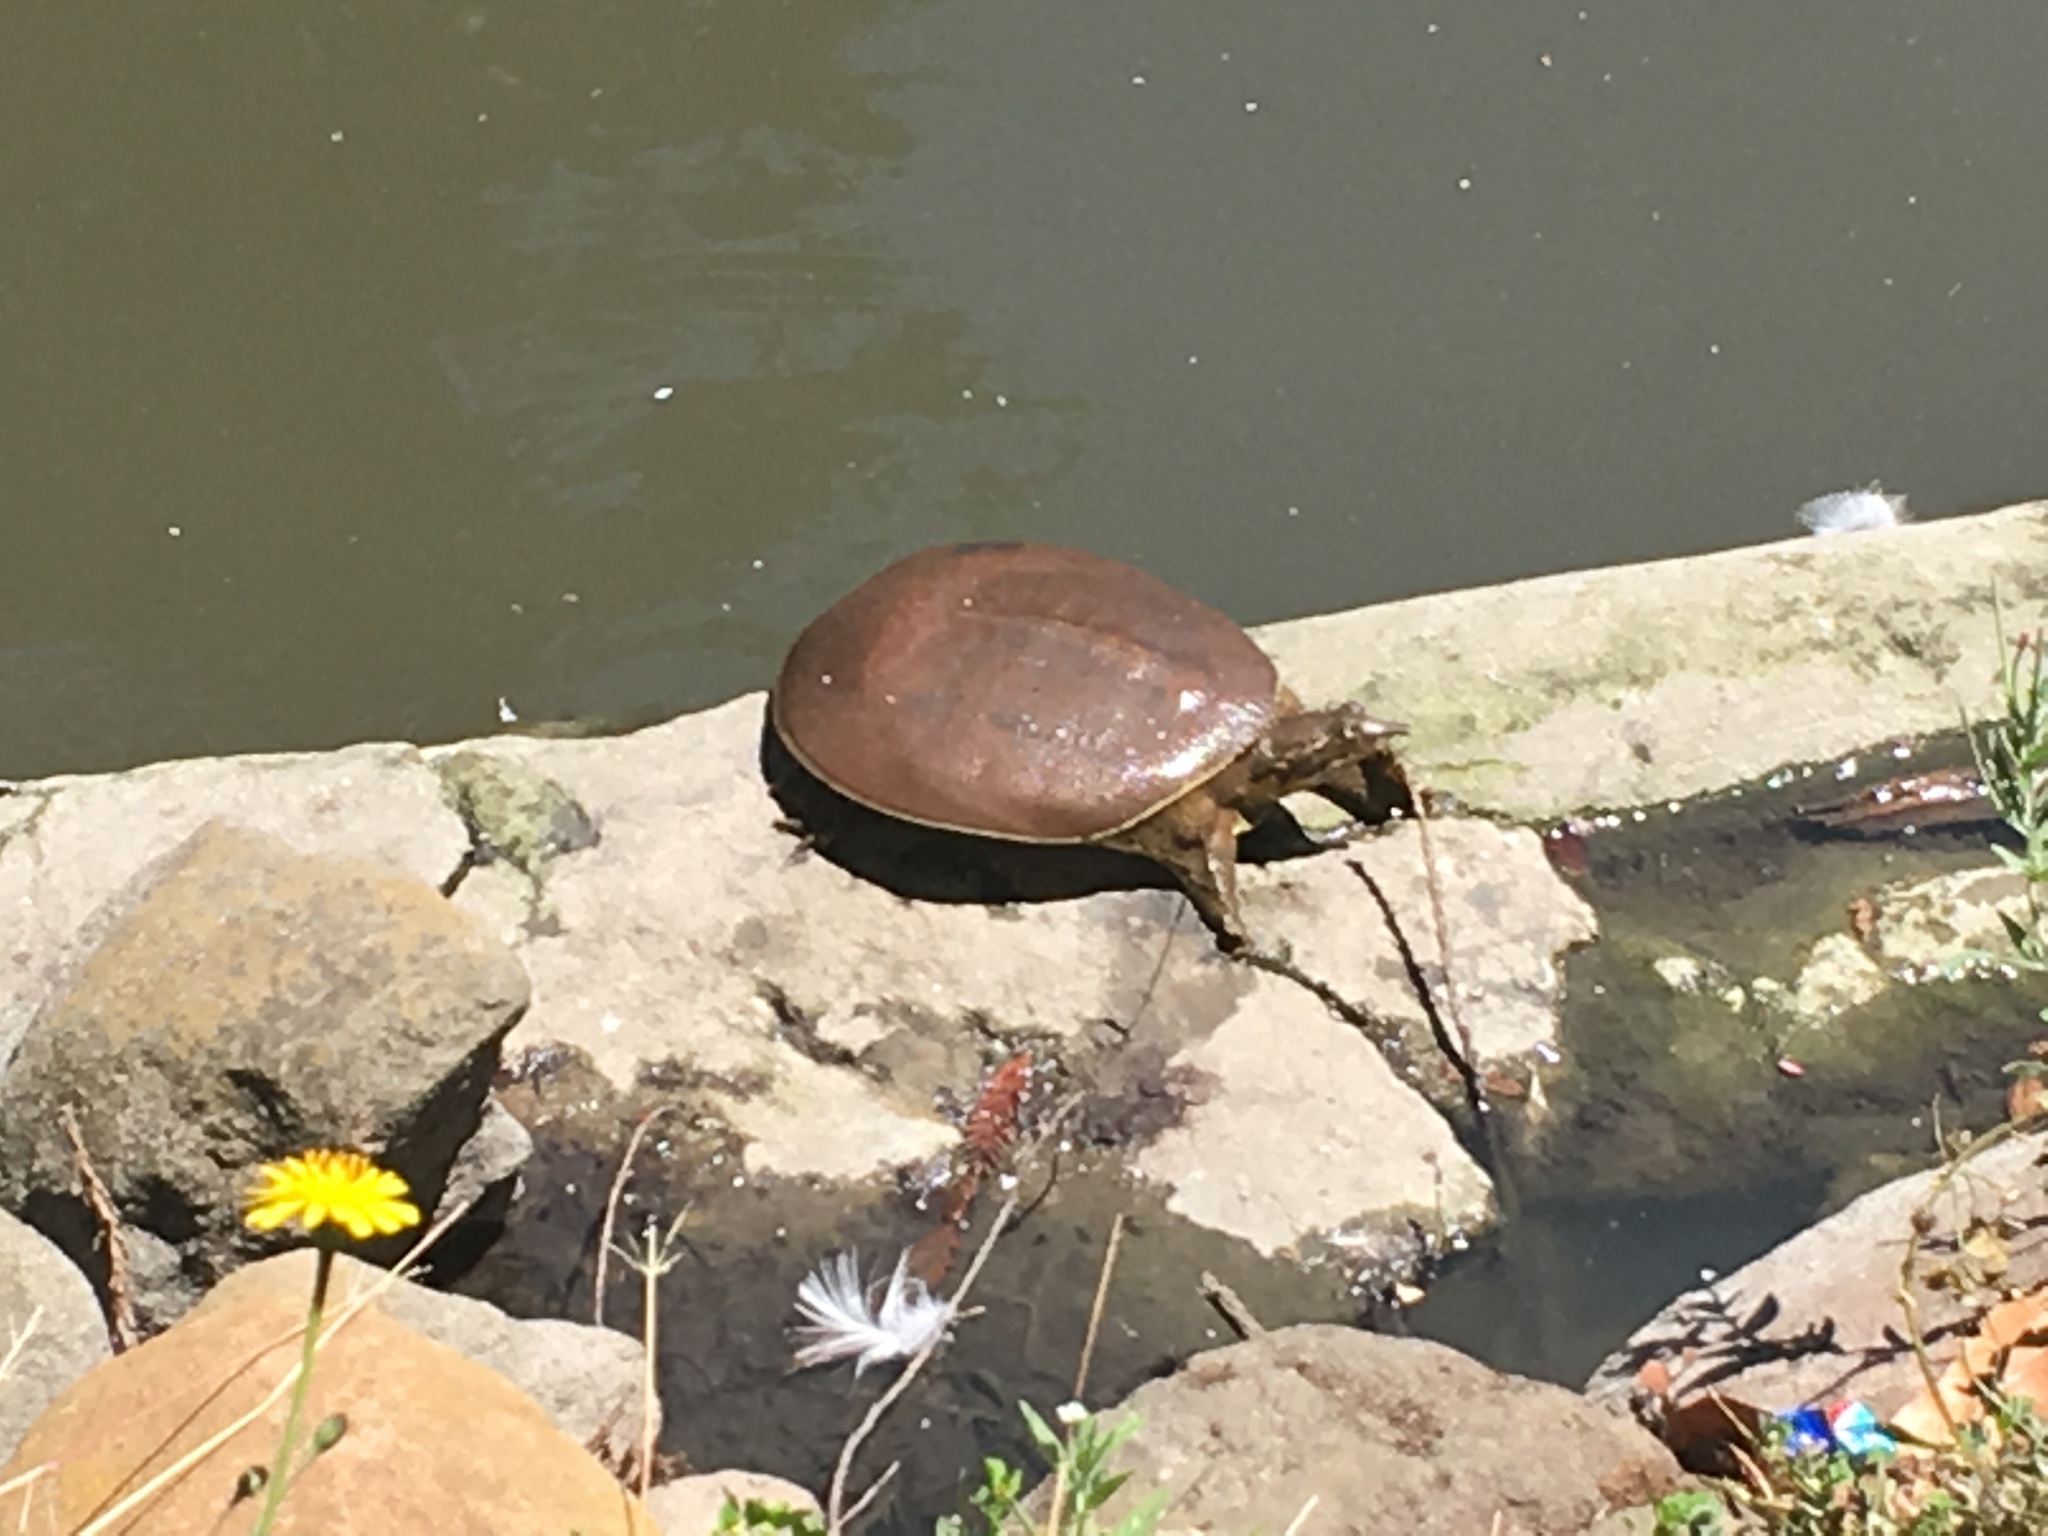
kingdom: Animalia
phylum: Chordata
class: Testudines
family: Trionychidae
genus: Apalone
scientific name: Apalone spinifera
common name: Spiny softshell turtle
